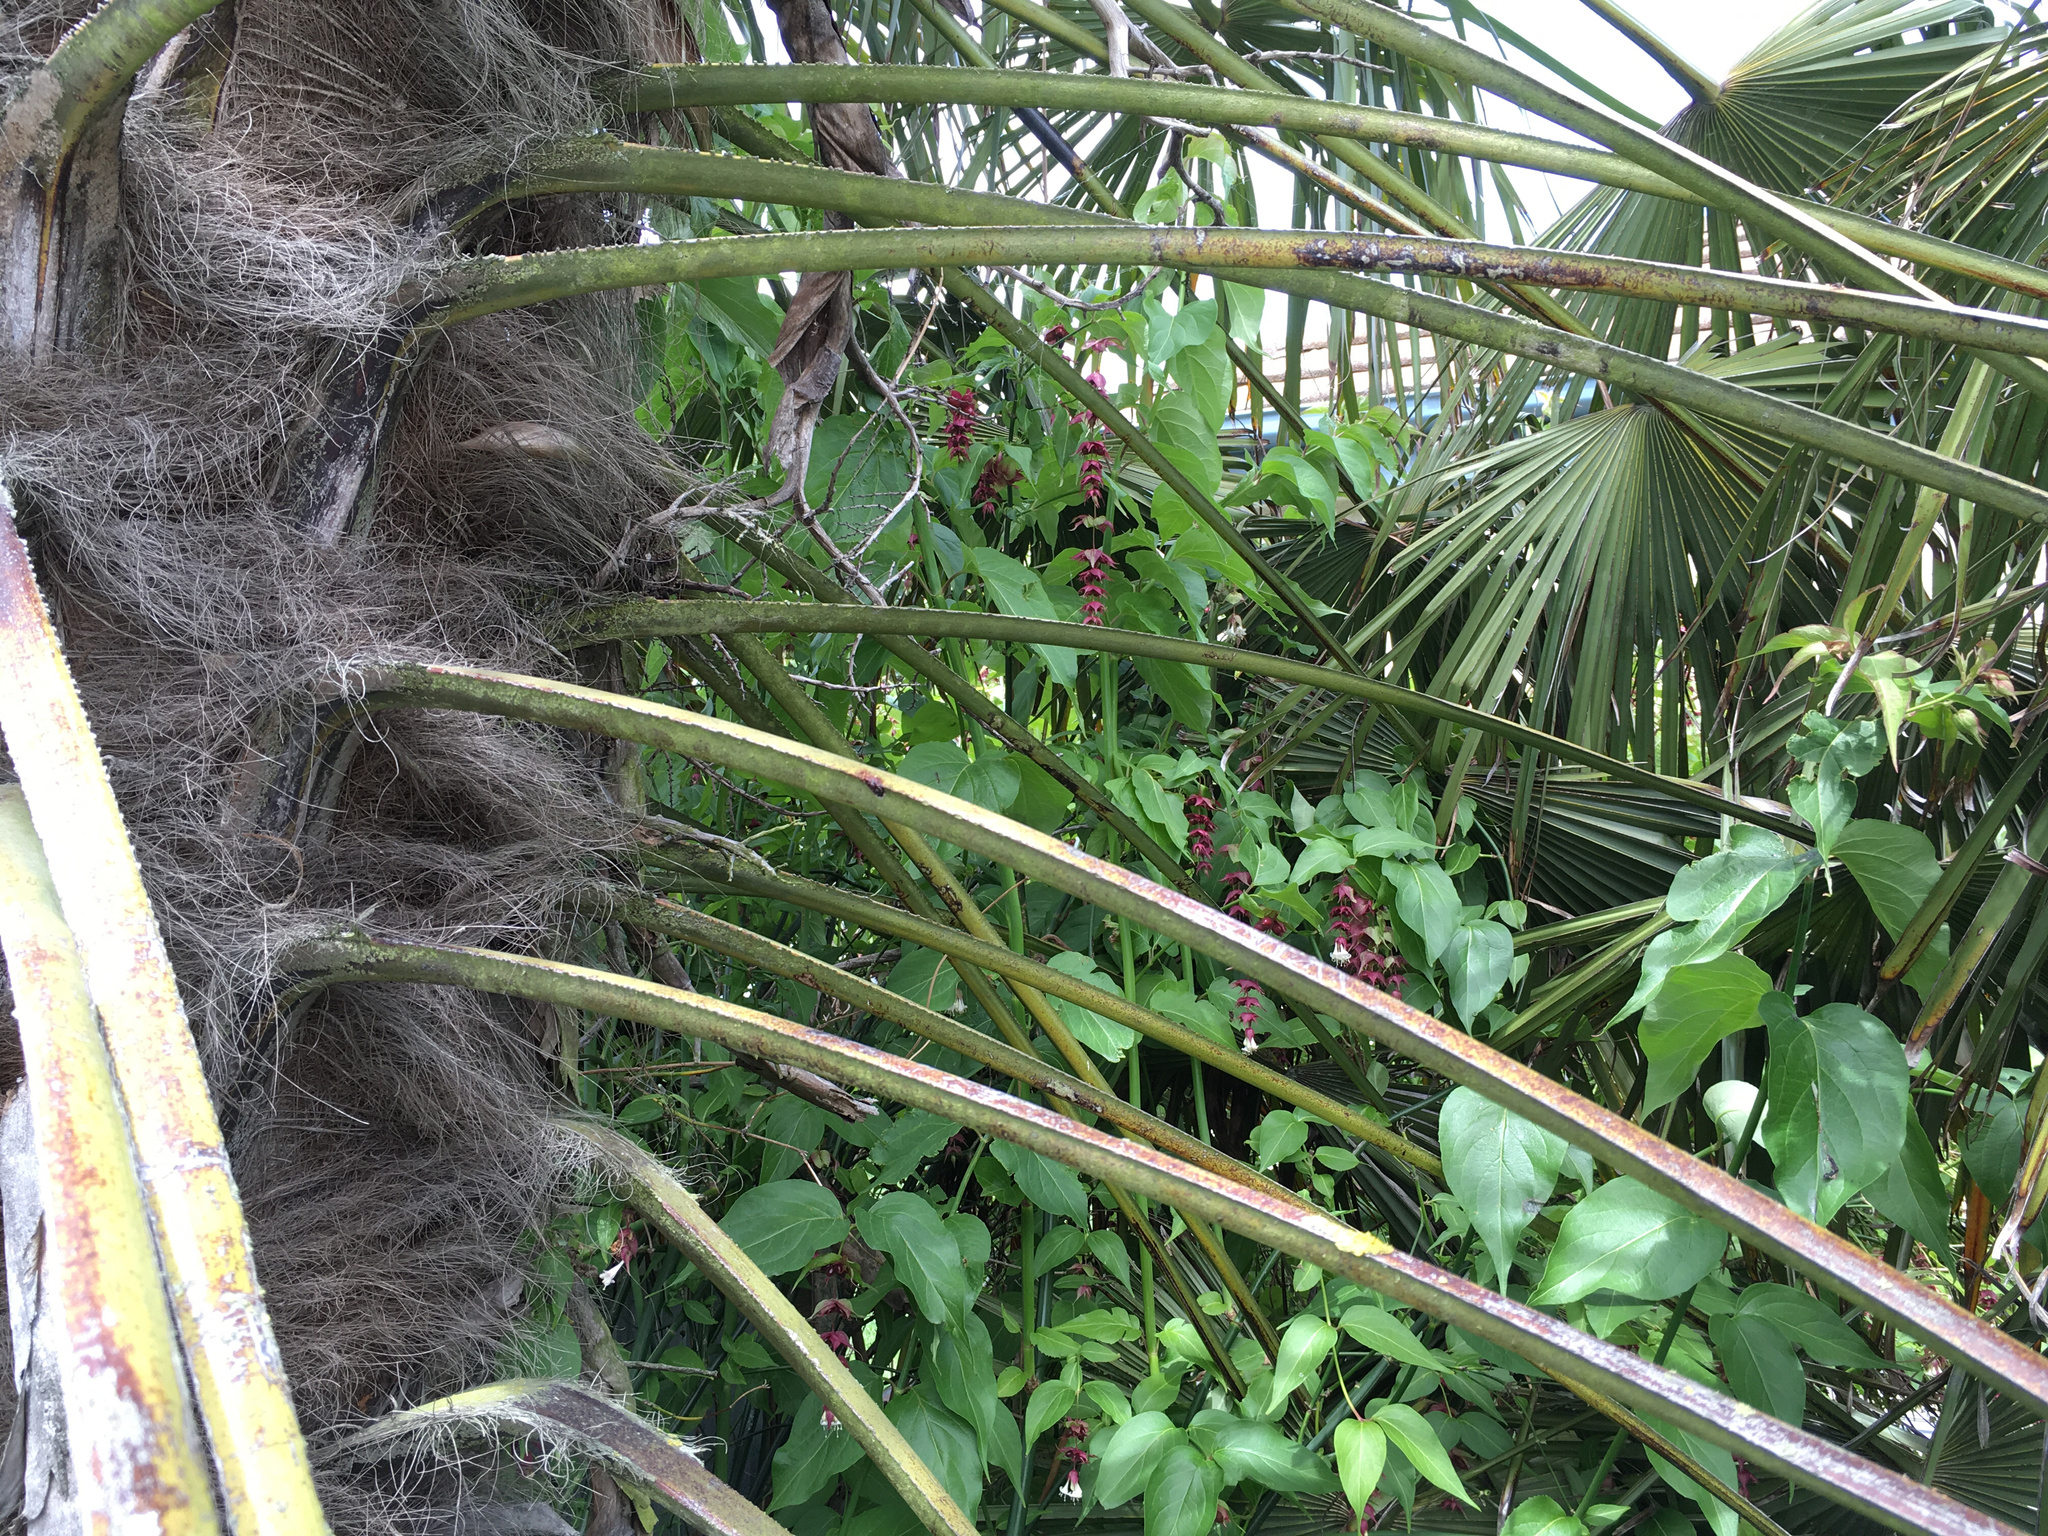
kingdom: Plantae
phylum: Tracheophyta
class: Magnoliopsida
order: Dipsacales
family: Caprifoliaceae
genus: Leycesteria
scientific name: Leycesteria formosa
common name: Himalayan honeysuckle
